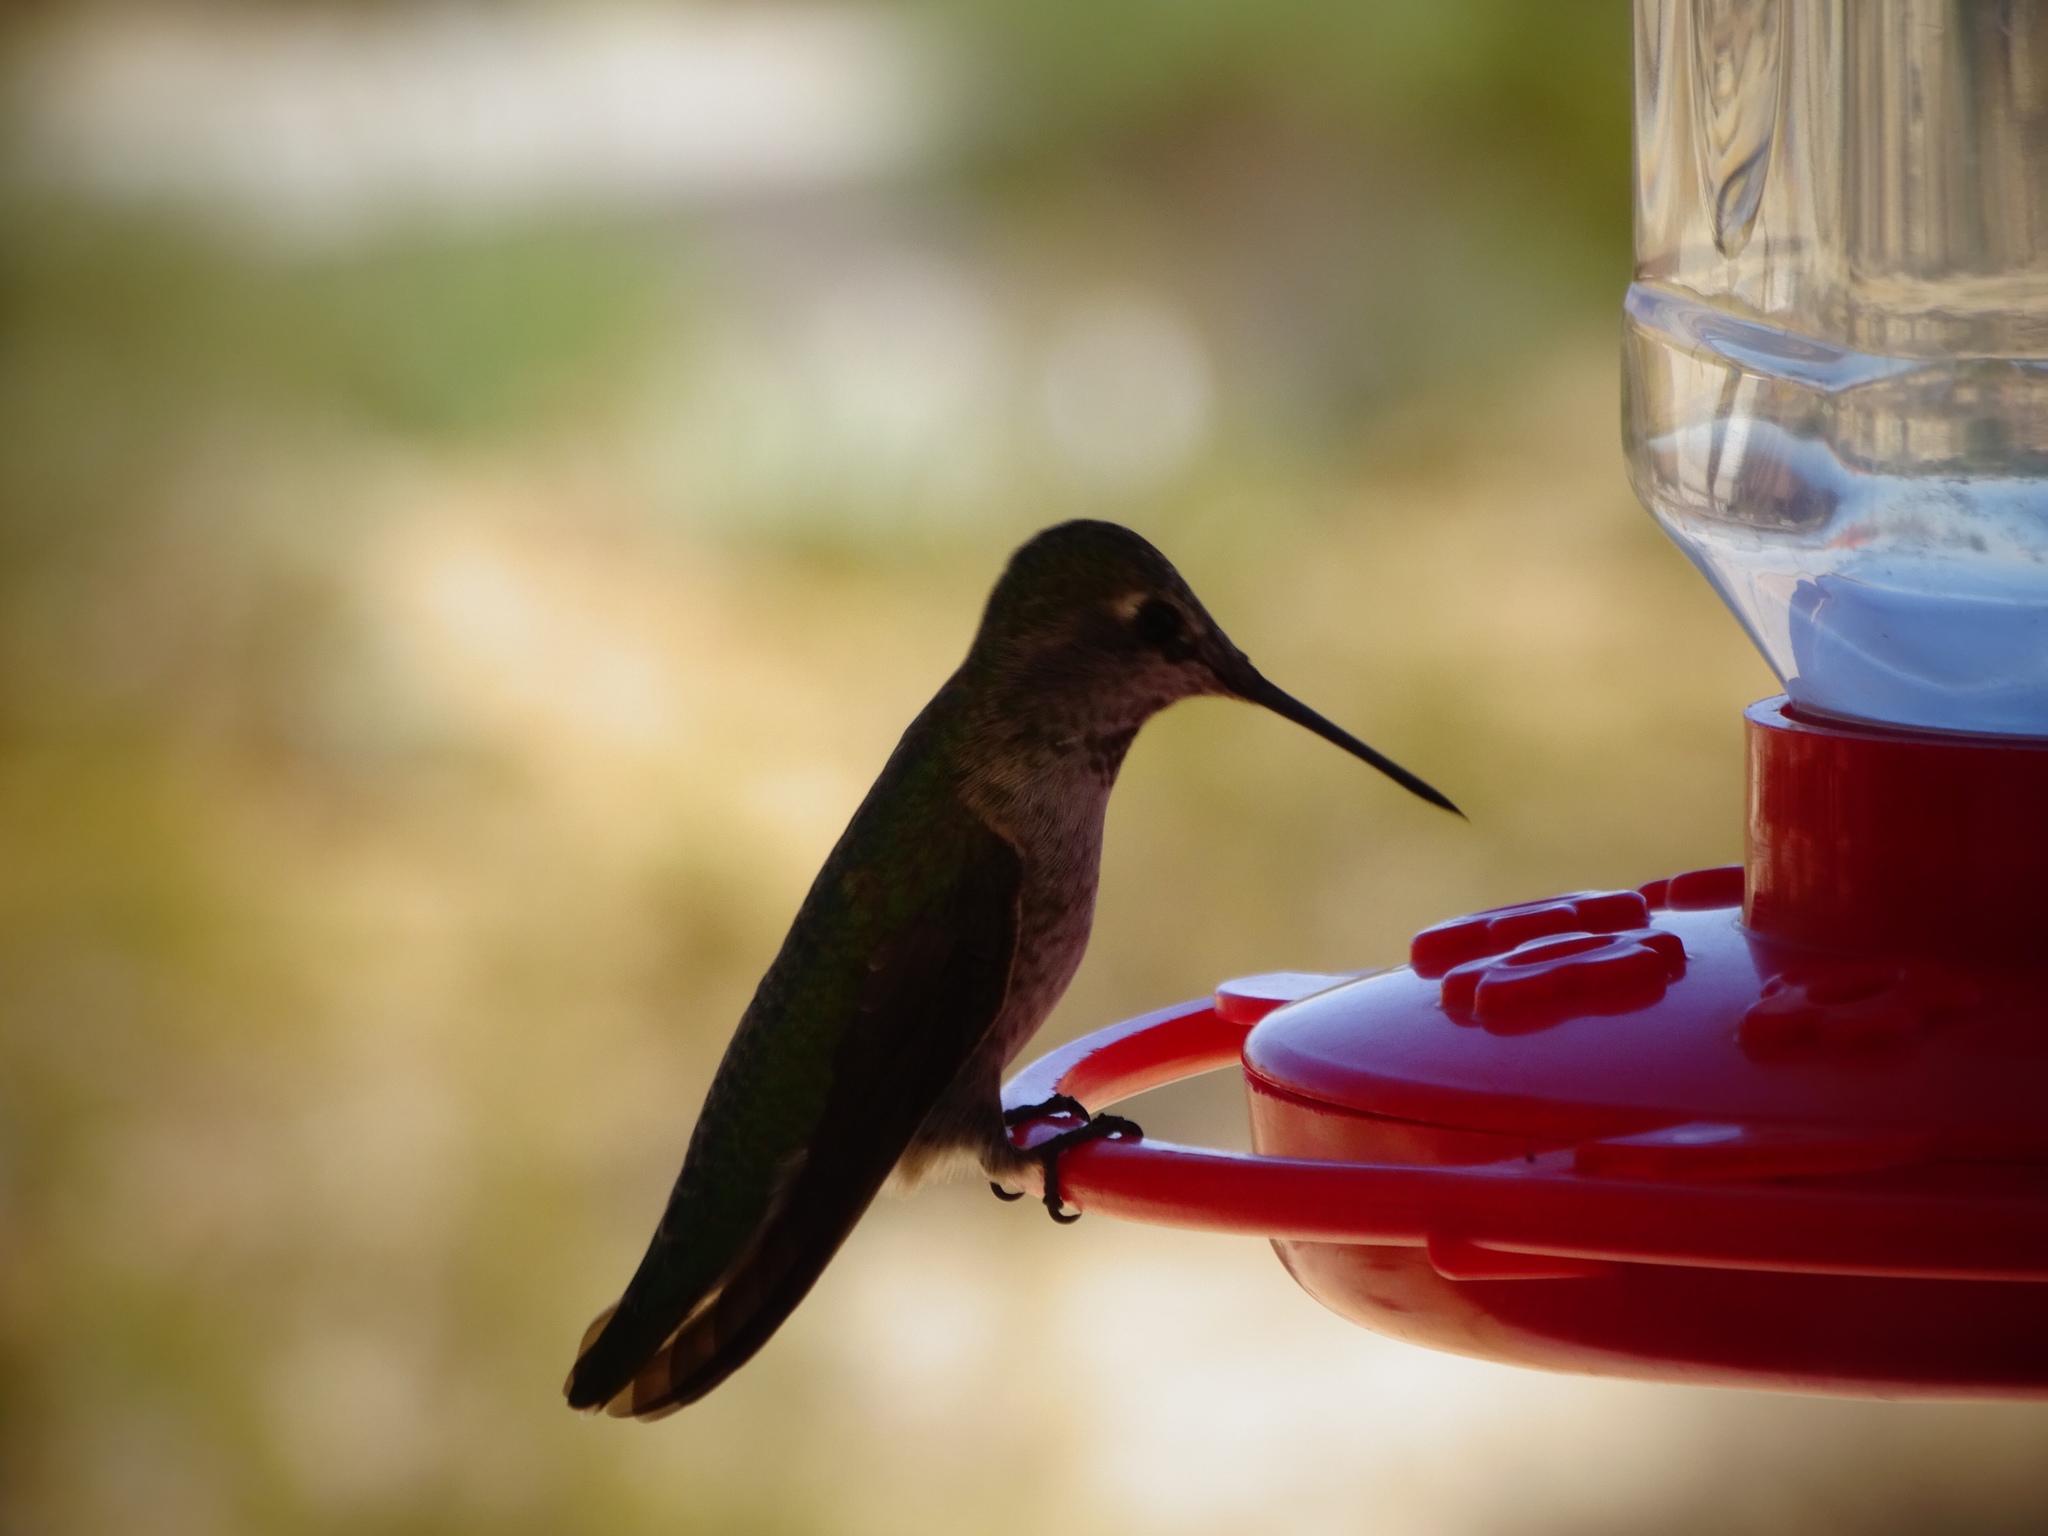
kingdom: Animalia
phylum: Chordata
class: Aves
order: Apodiformes
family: Trochilidae
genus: Calypte
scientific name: Calypte anna
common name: Anna's hummingbird
